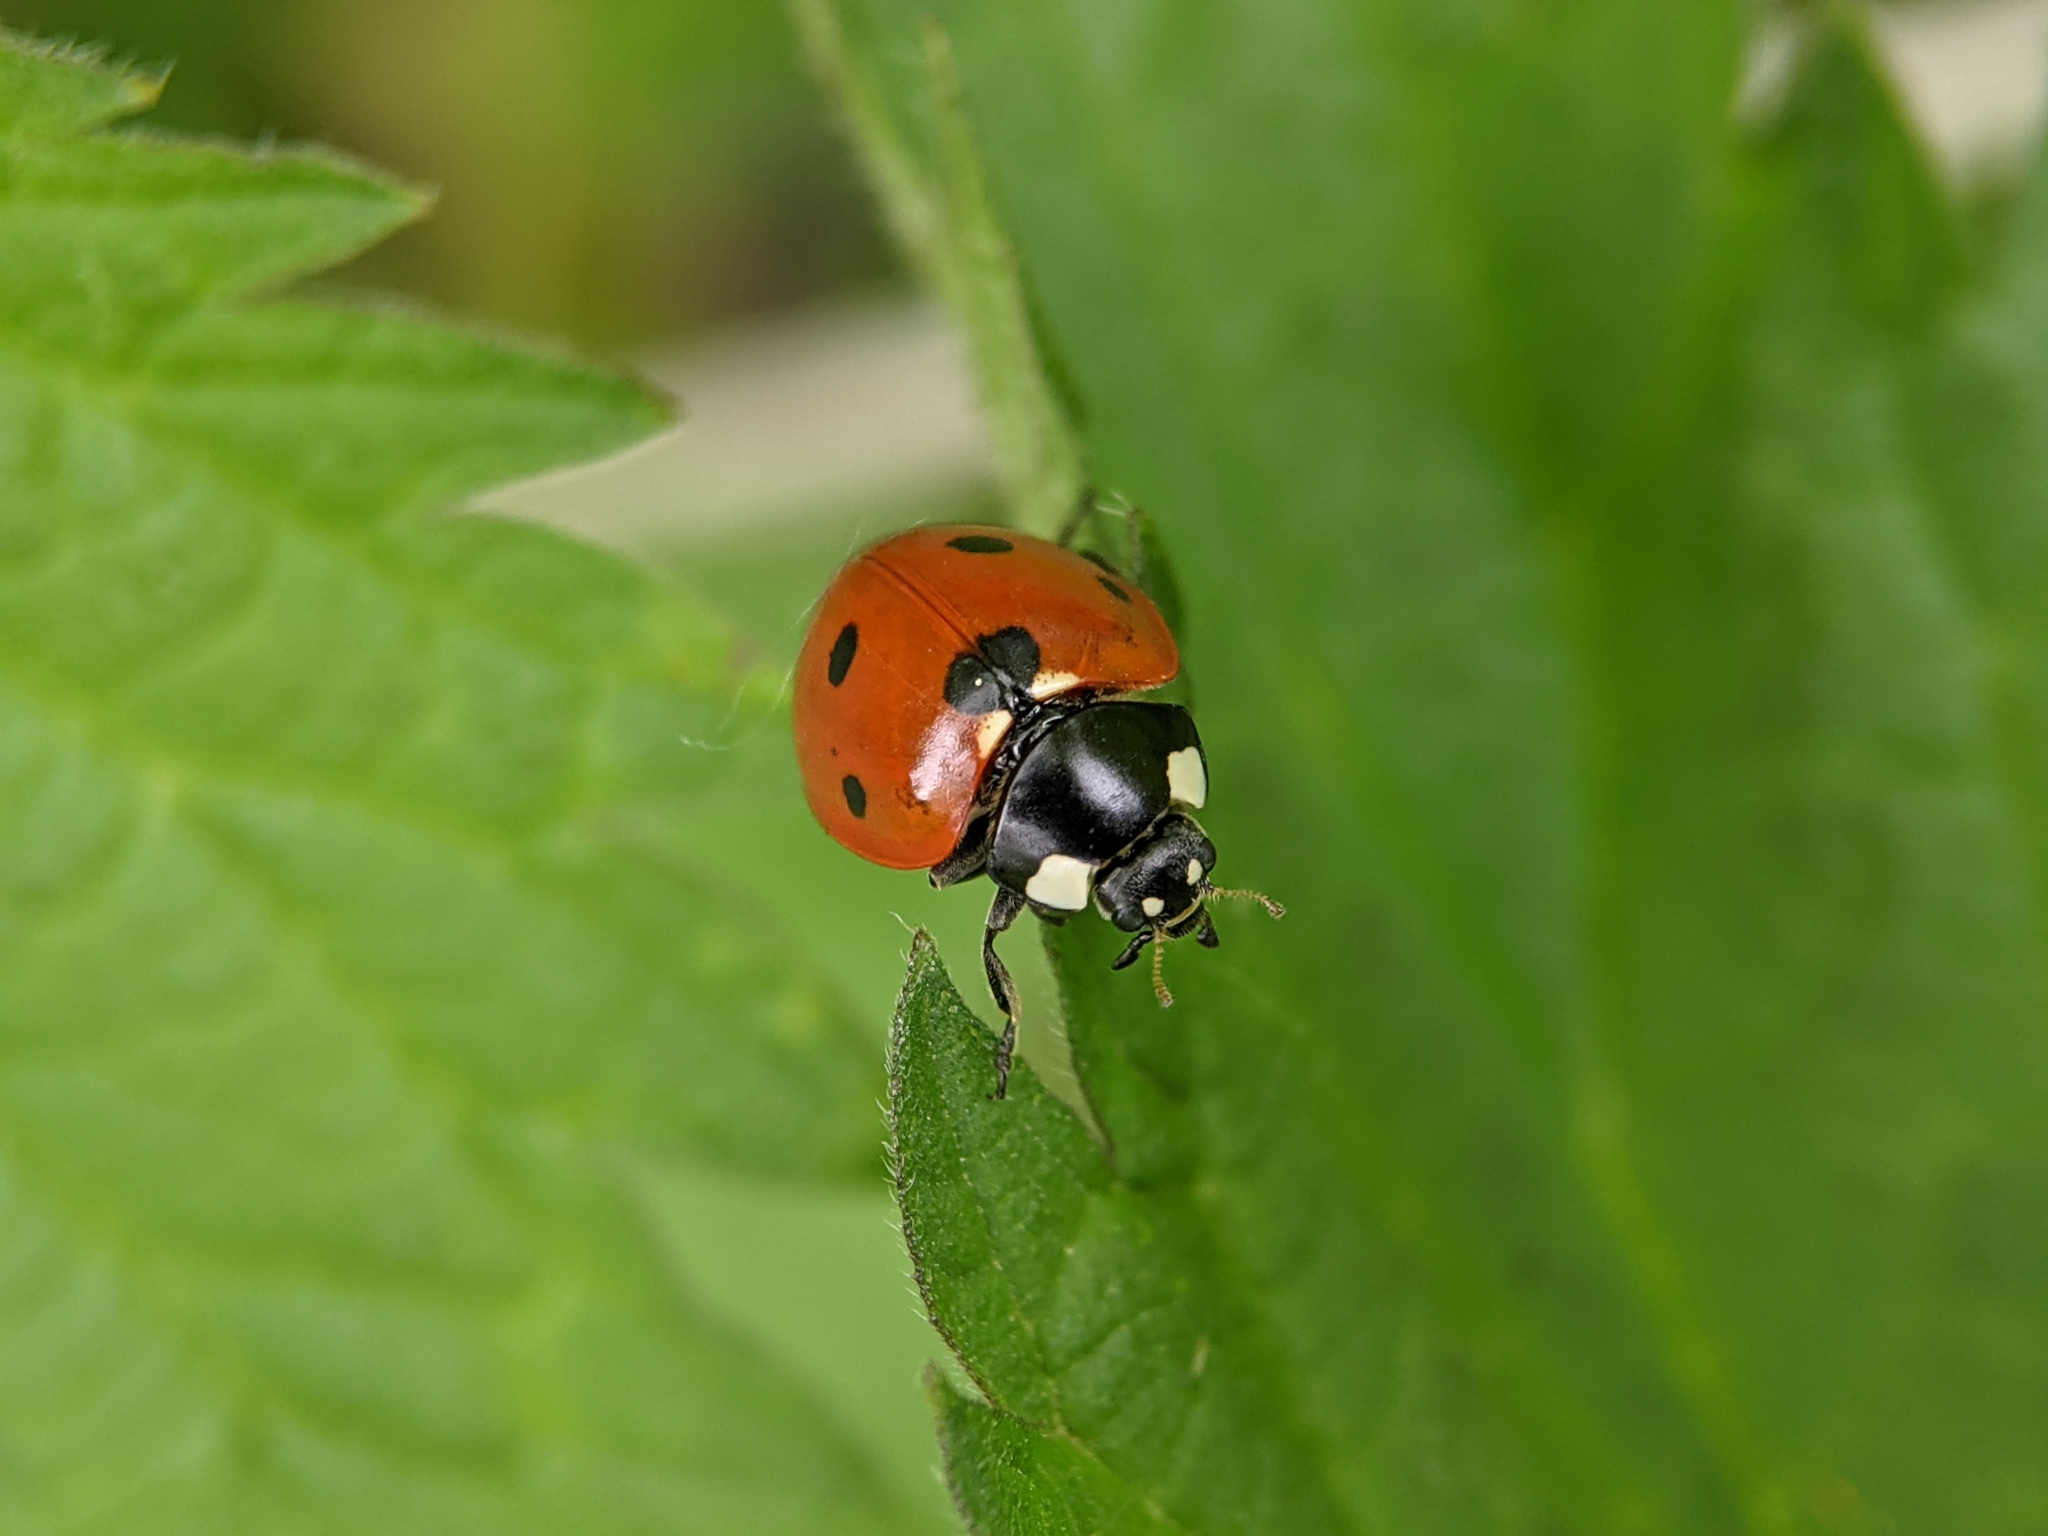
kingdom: Animalia
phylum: Arthropoda
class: Insecta
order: Coleoptera
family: Coccinellidae
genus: Coccinella
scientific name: Coccinella septempunctata
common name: Sevenspotted lady beetle
